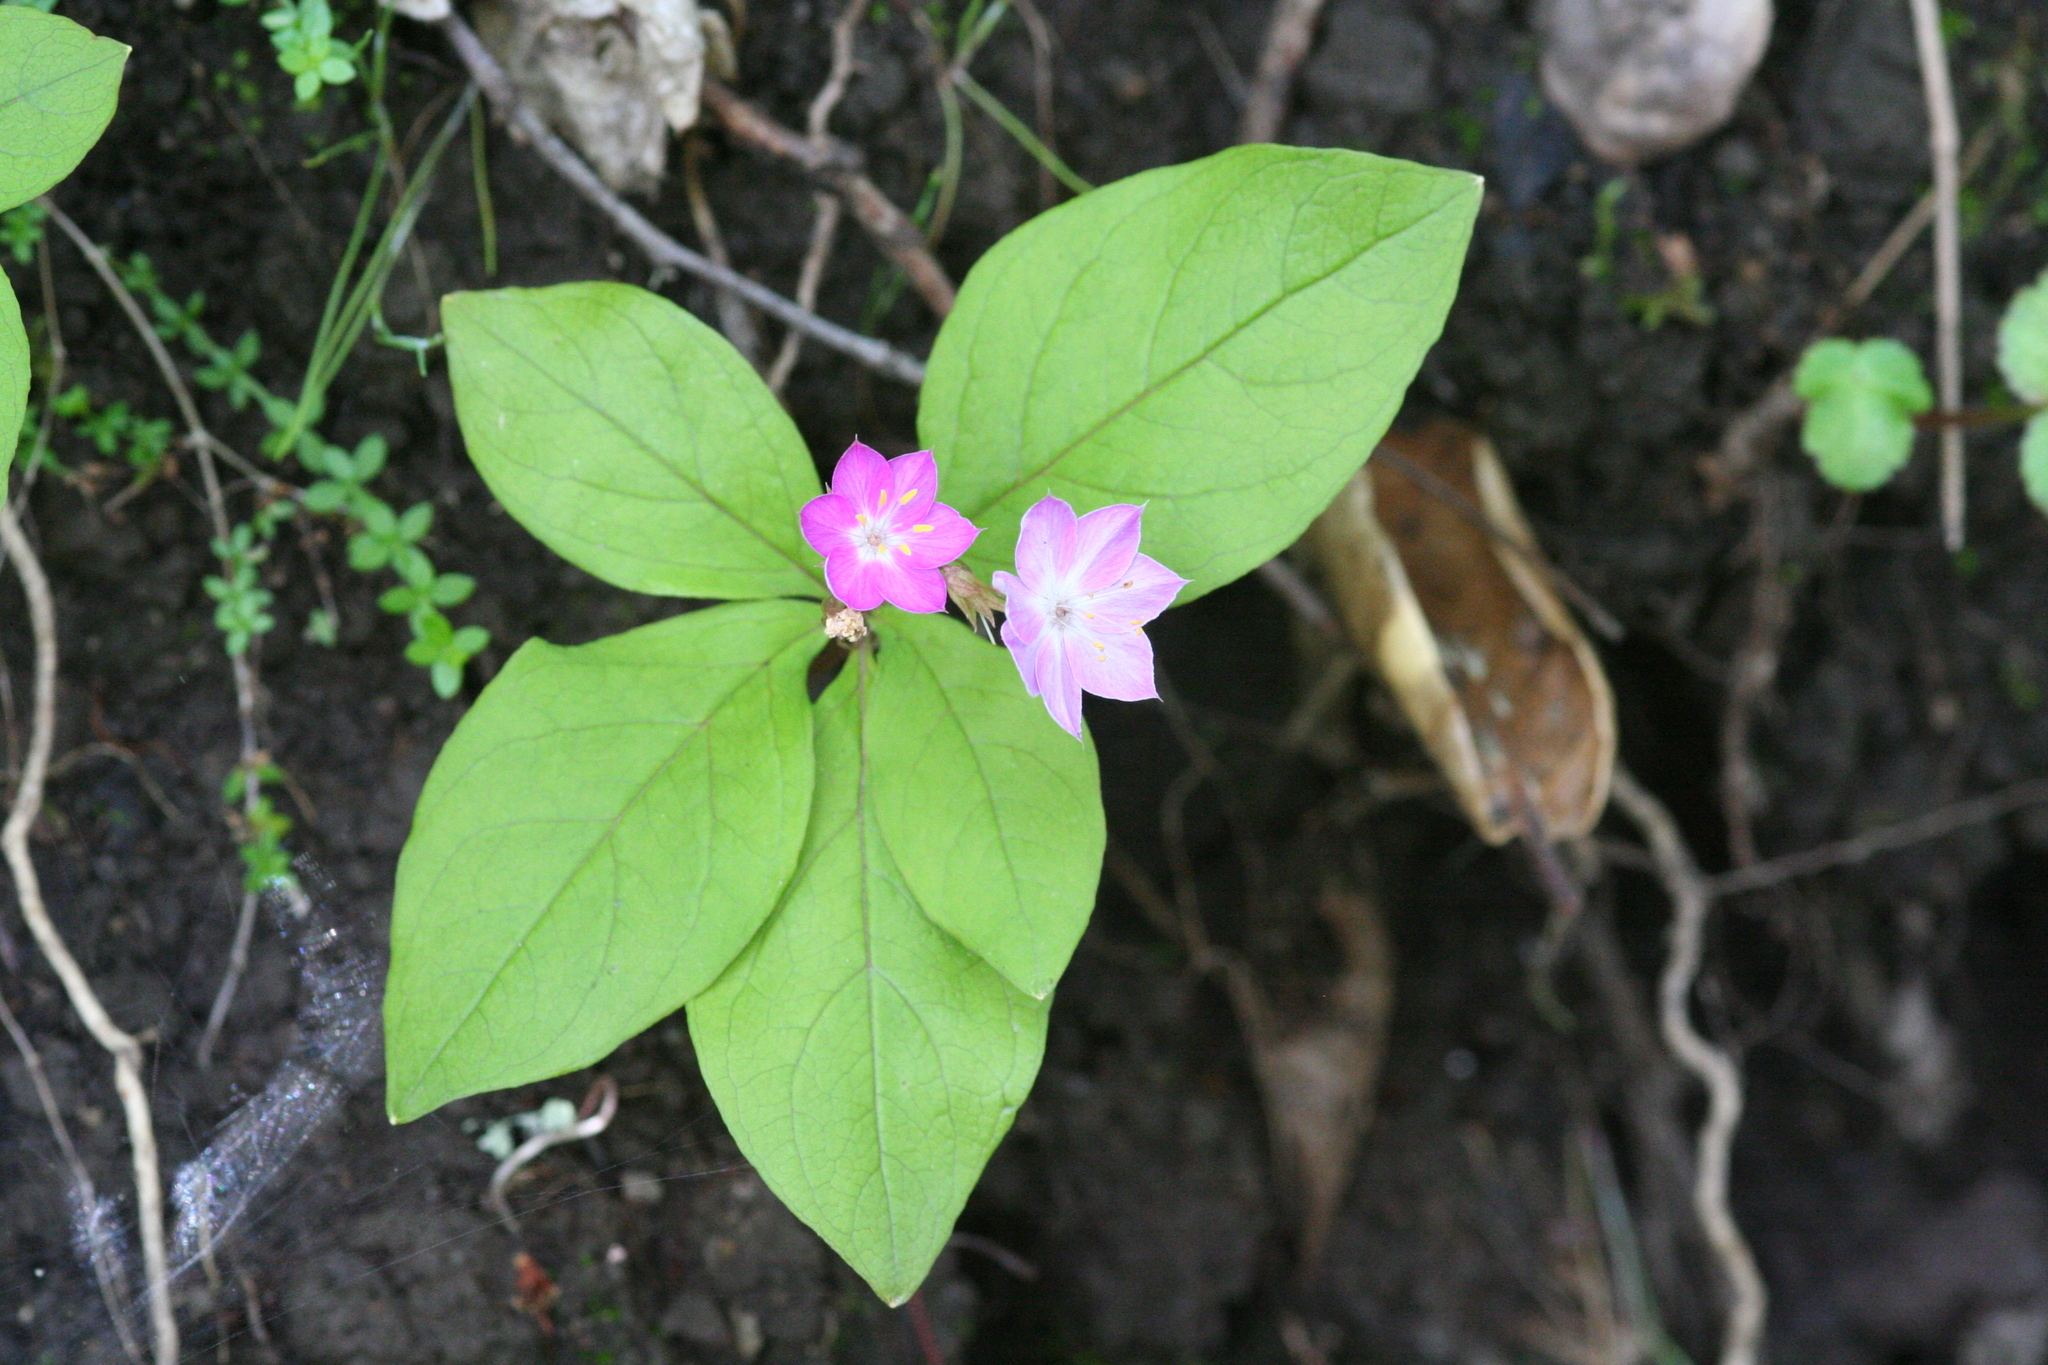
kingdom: Plantae
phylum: Tracheophyta
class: Magnoliopsida
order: Ericales
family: Primulaceae
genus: Lysimachia
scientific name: Lysimachia latifolia
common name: Pacific starflower
